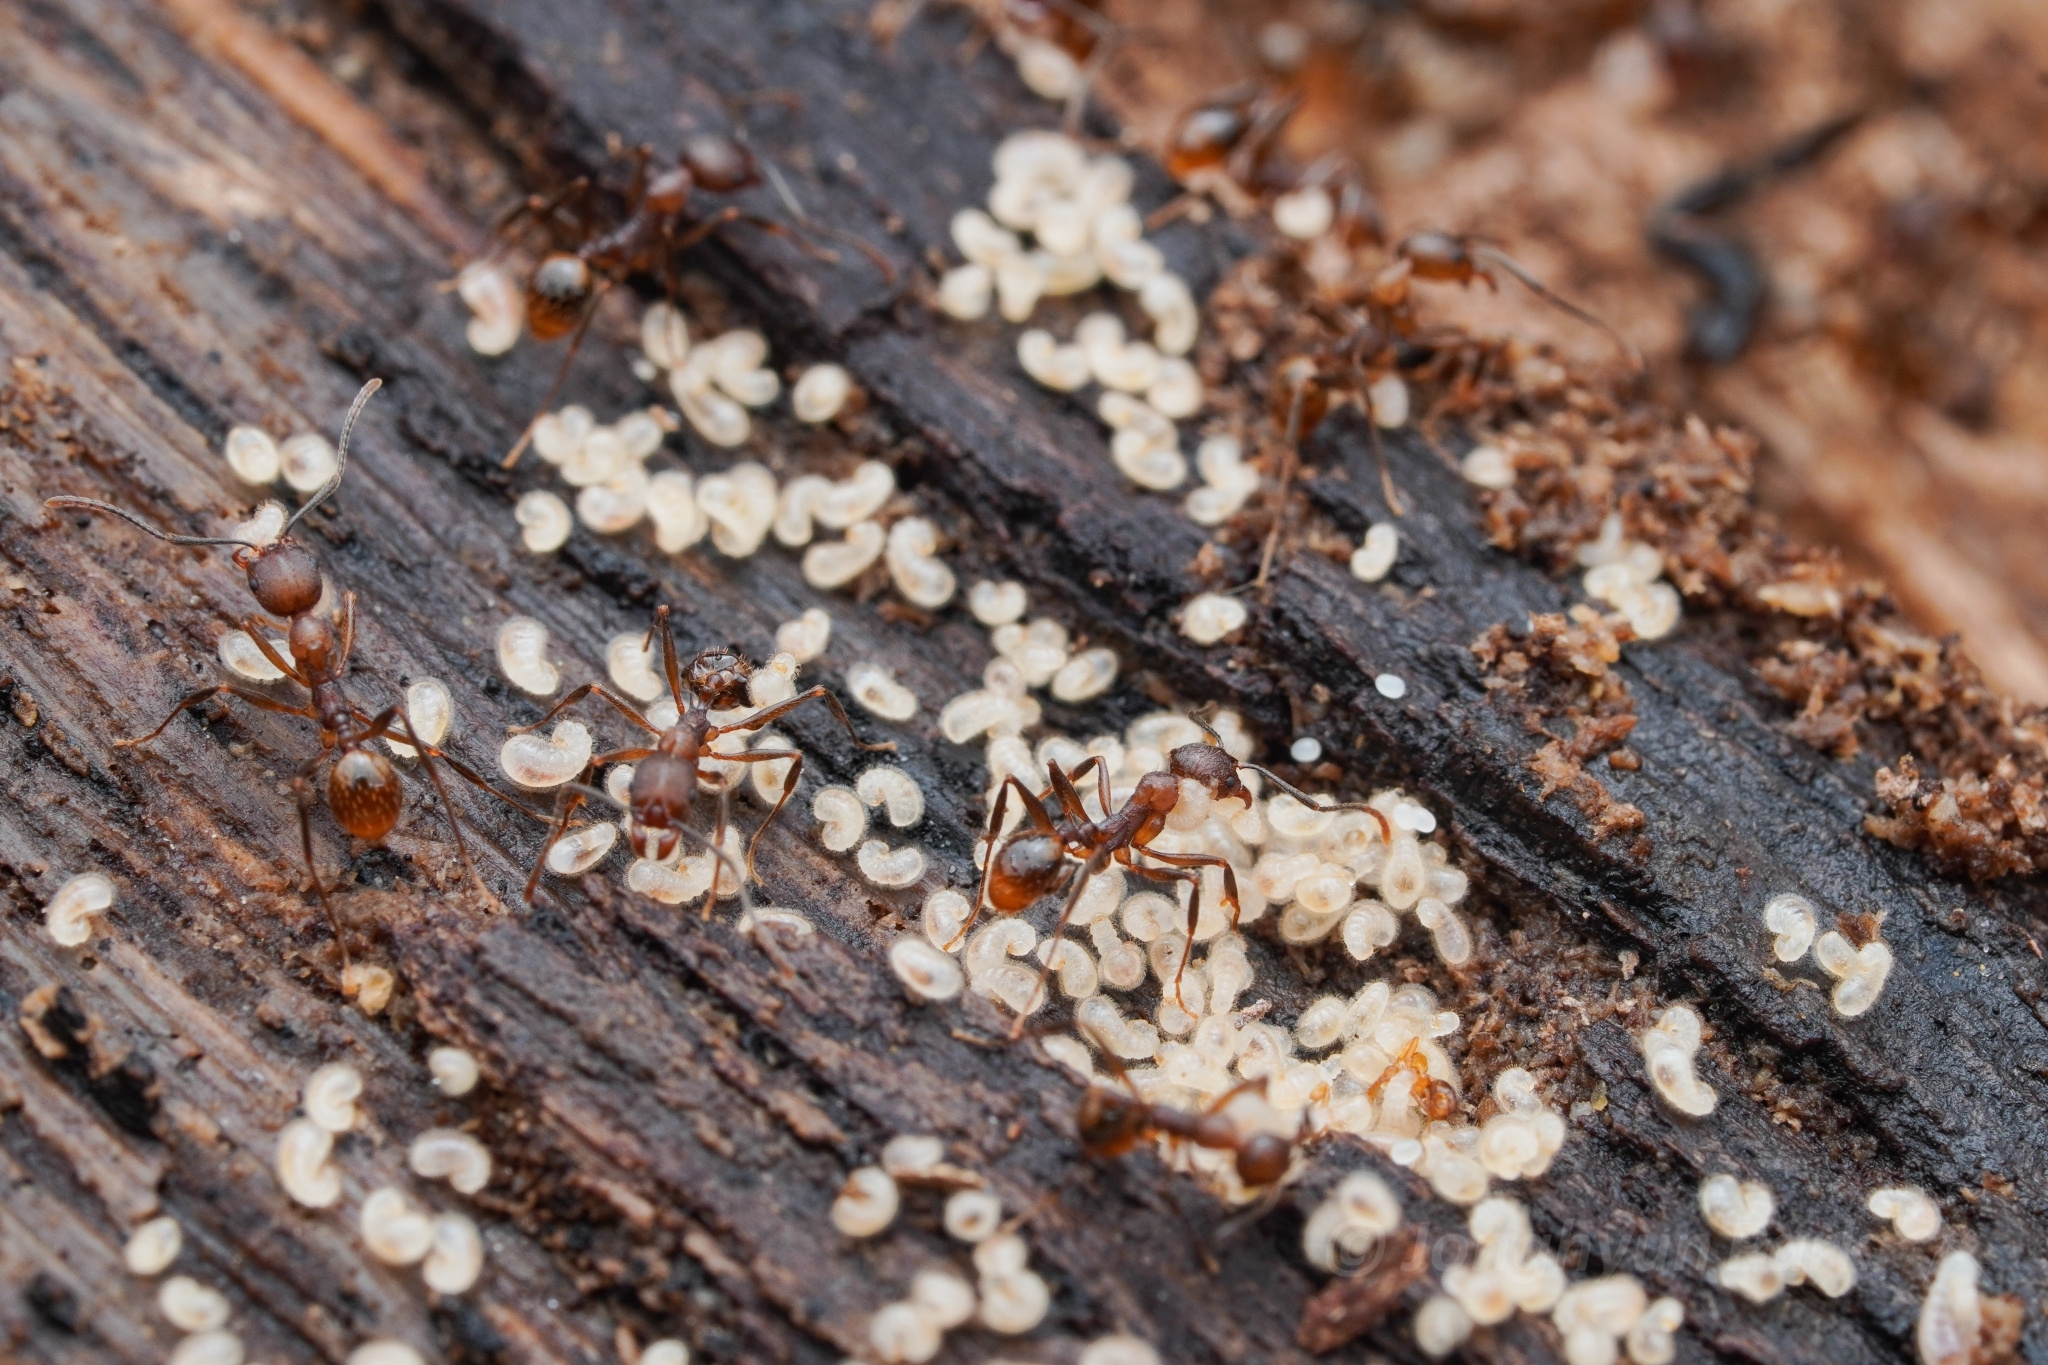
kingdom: Animalia
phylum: Arthropoda
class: Insecta
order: Hymenoptera
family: Formicidae
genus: Aphaenogaster
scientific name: Aphaenogaster fulva
